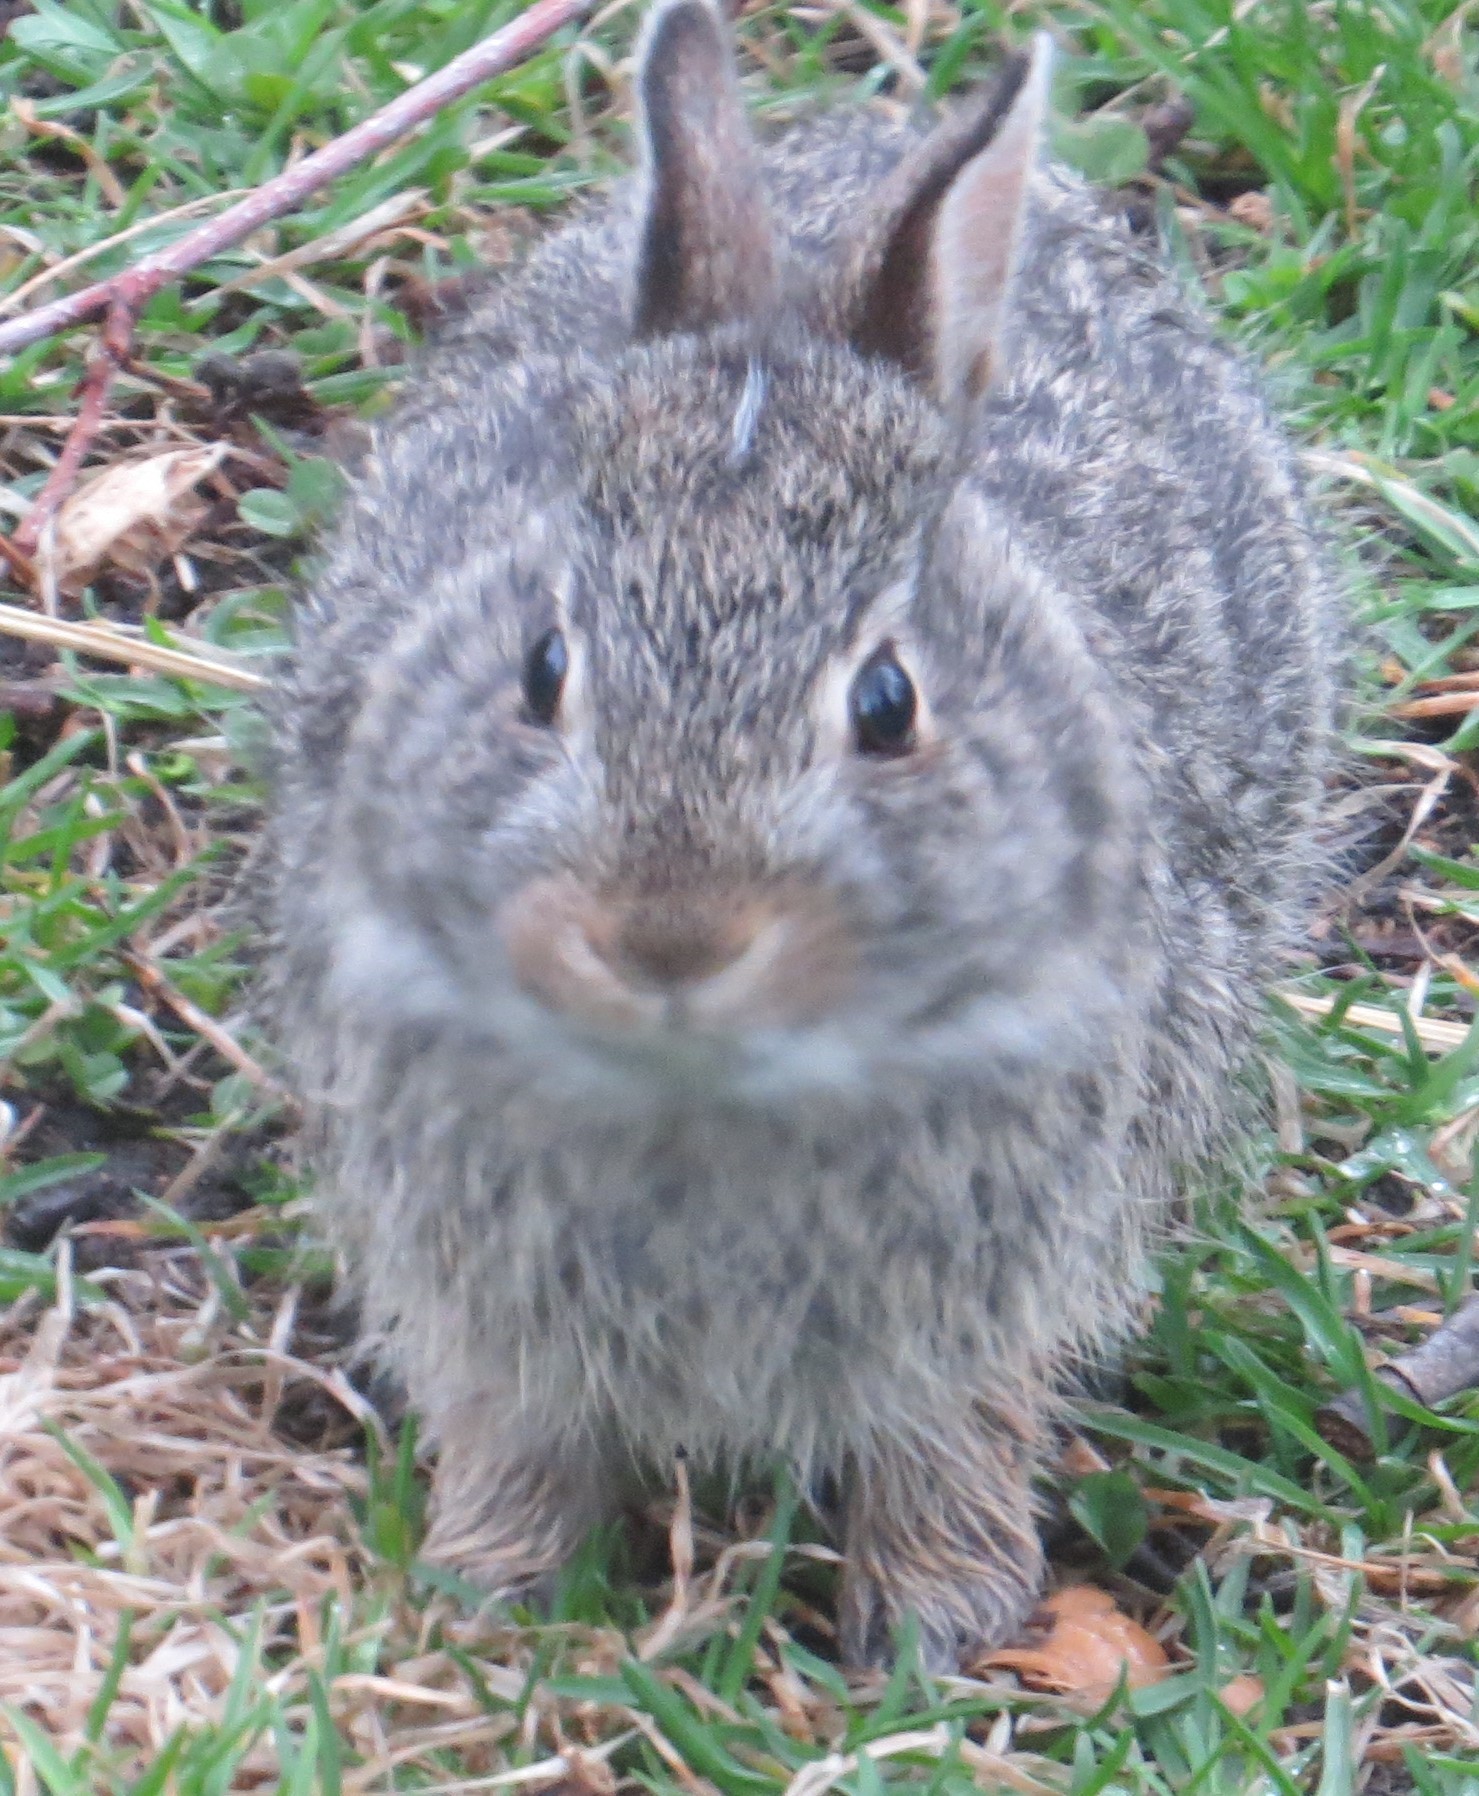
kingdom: Animalia
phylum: Chordata
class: Mammalia
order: Lagomorpha
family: Leporidae
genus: Sylvilagus
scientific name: Sylvilagus floridanus
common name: Eastern cottontail
